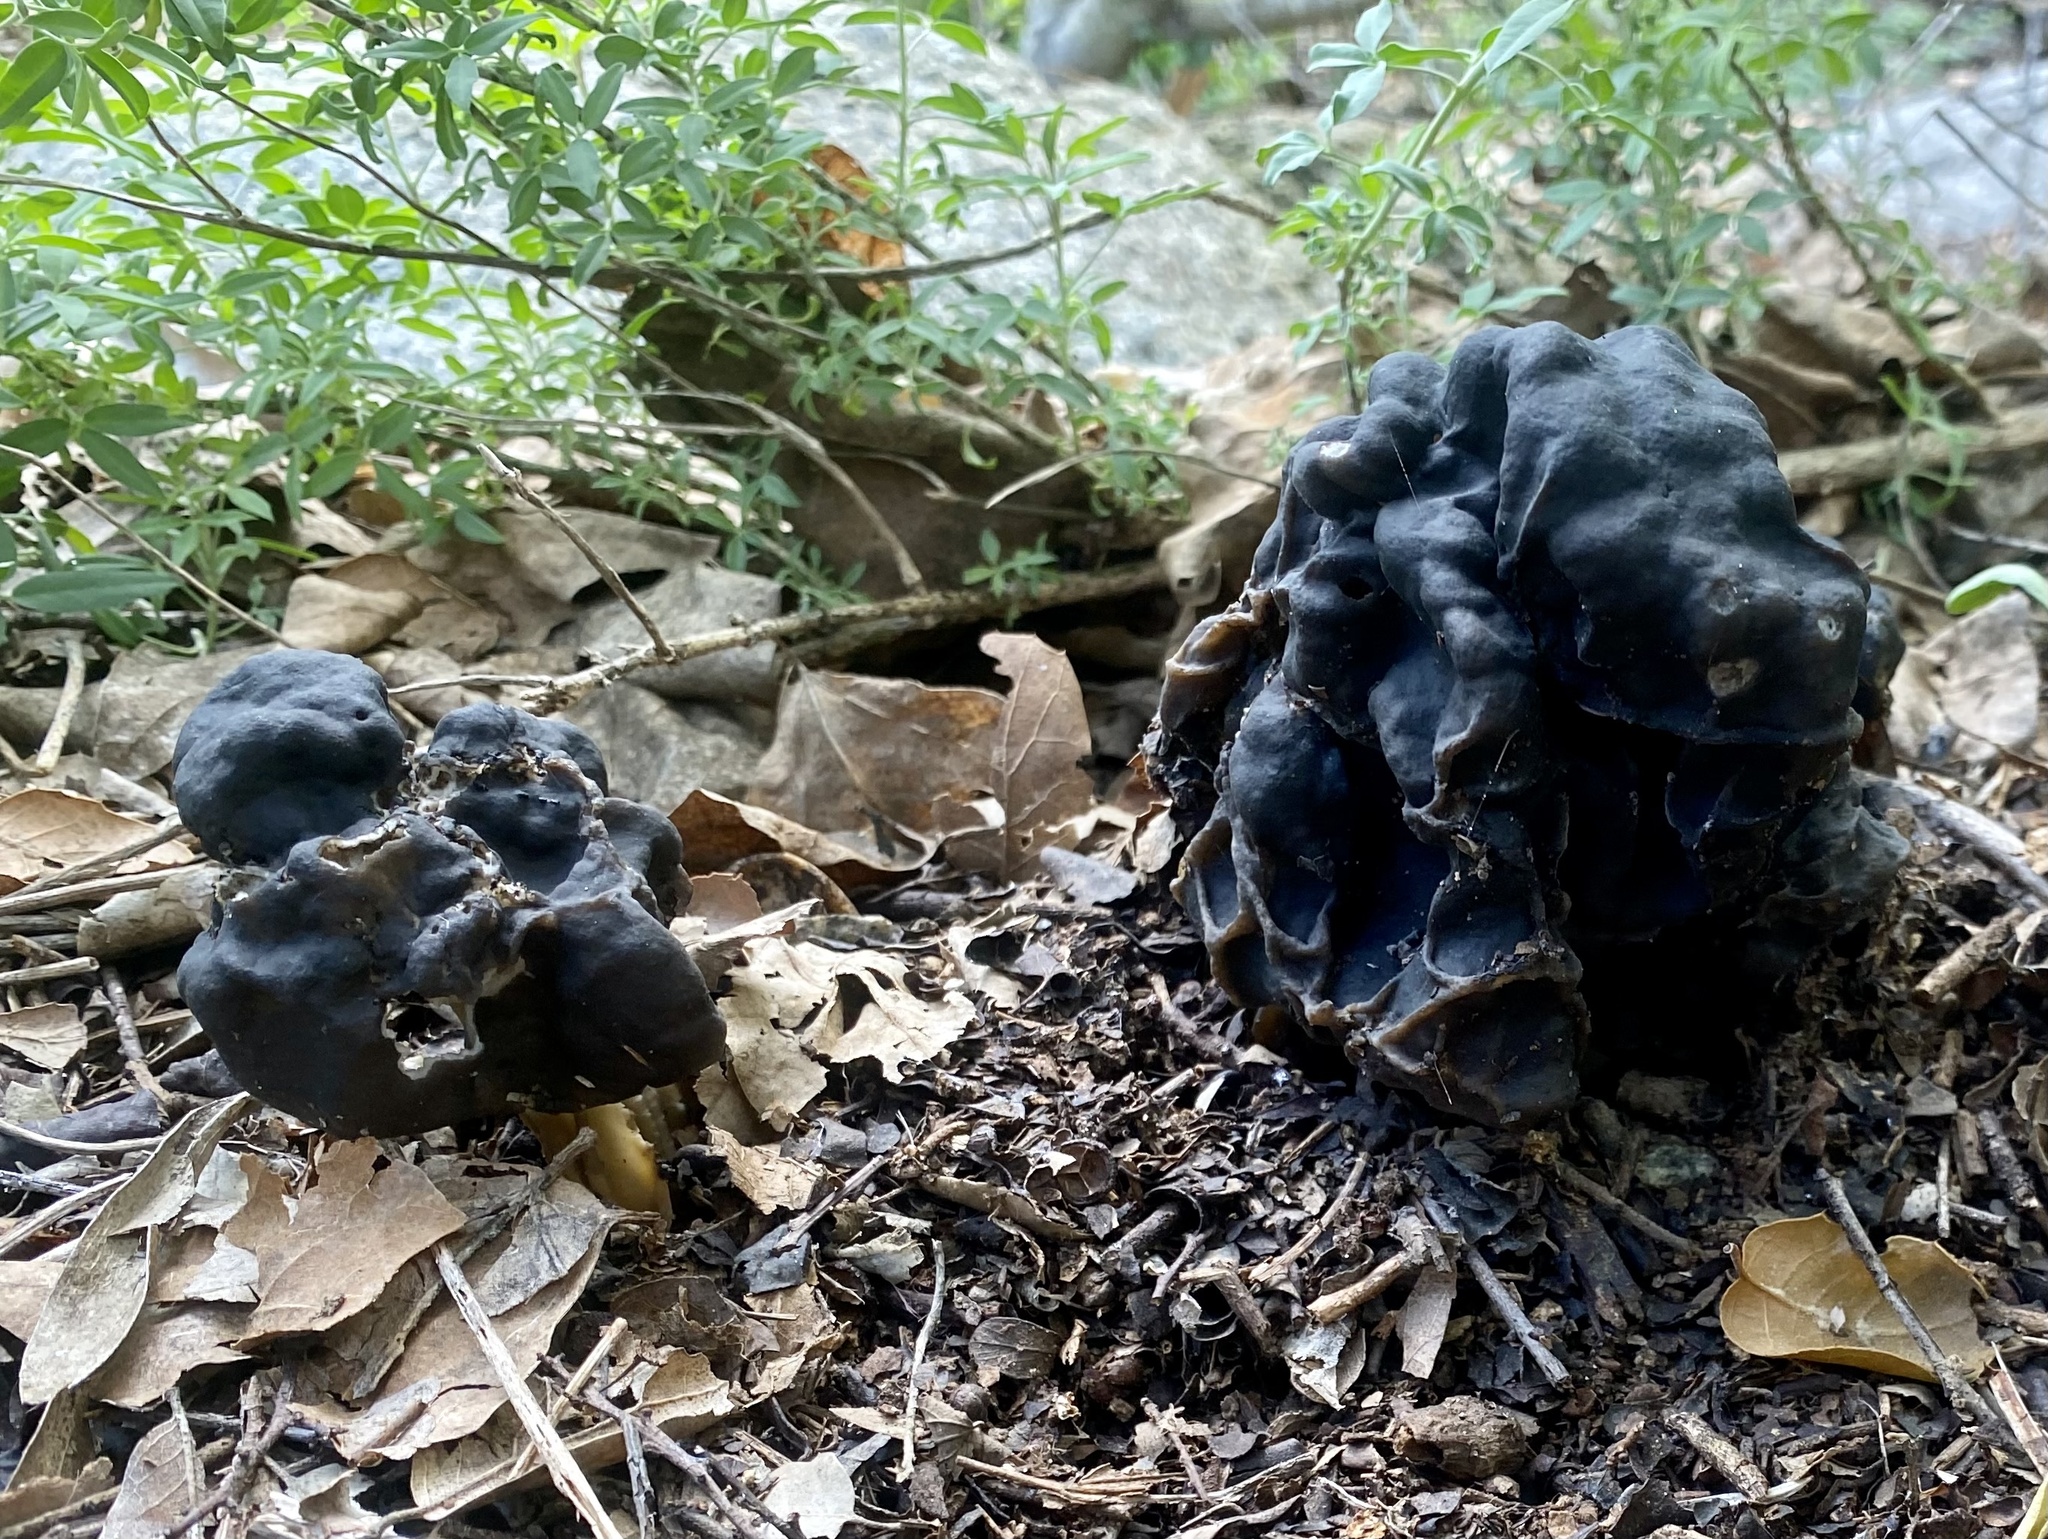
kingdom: Fungi
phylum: Ascomycota
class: Pezizomycetes
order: Pezizales
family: Helvellaceae
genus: Helvella
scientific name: Helvella dryophila
